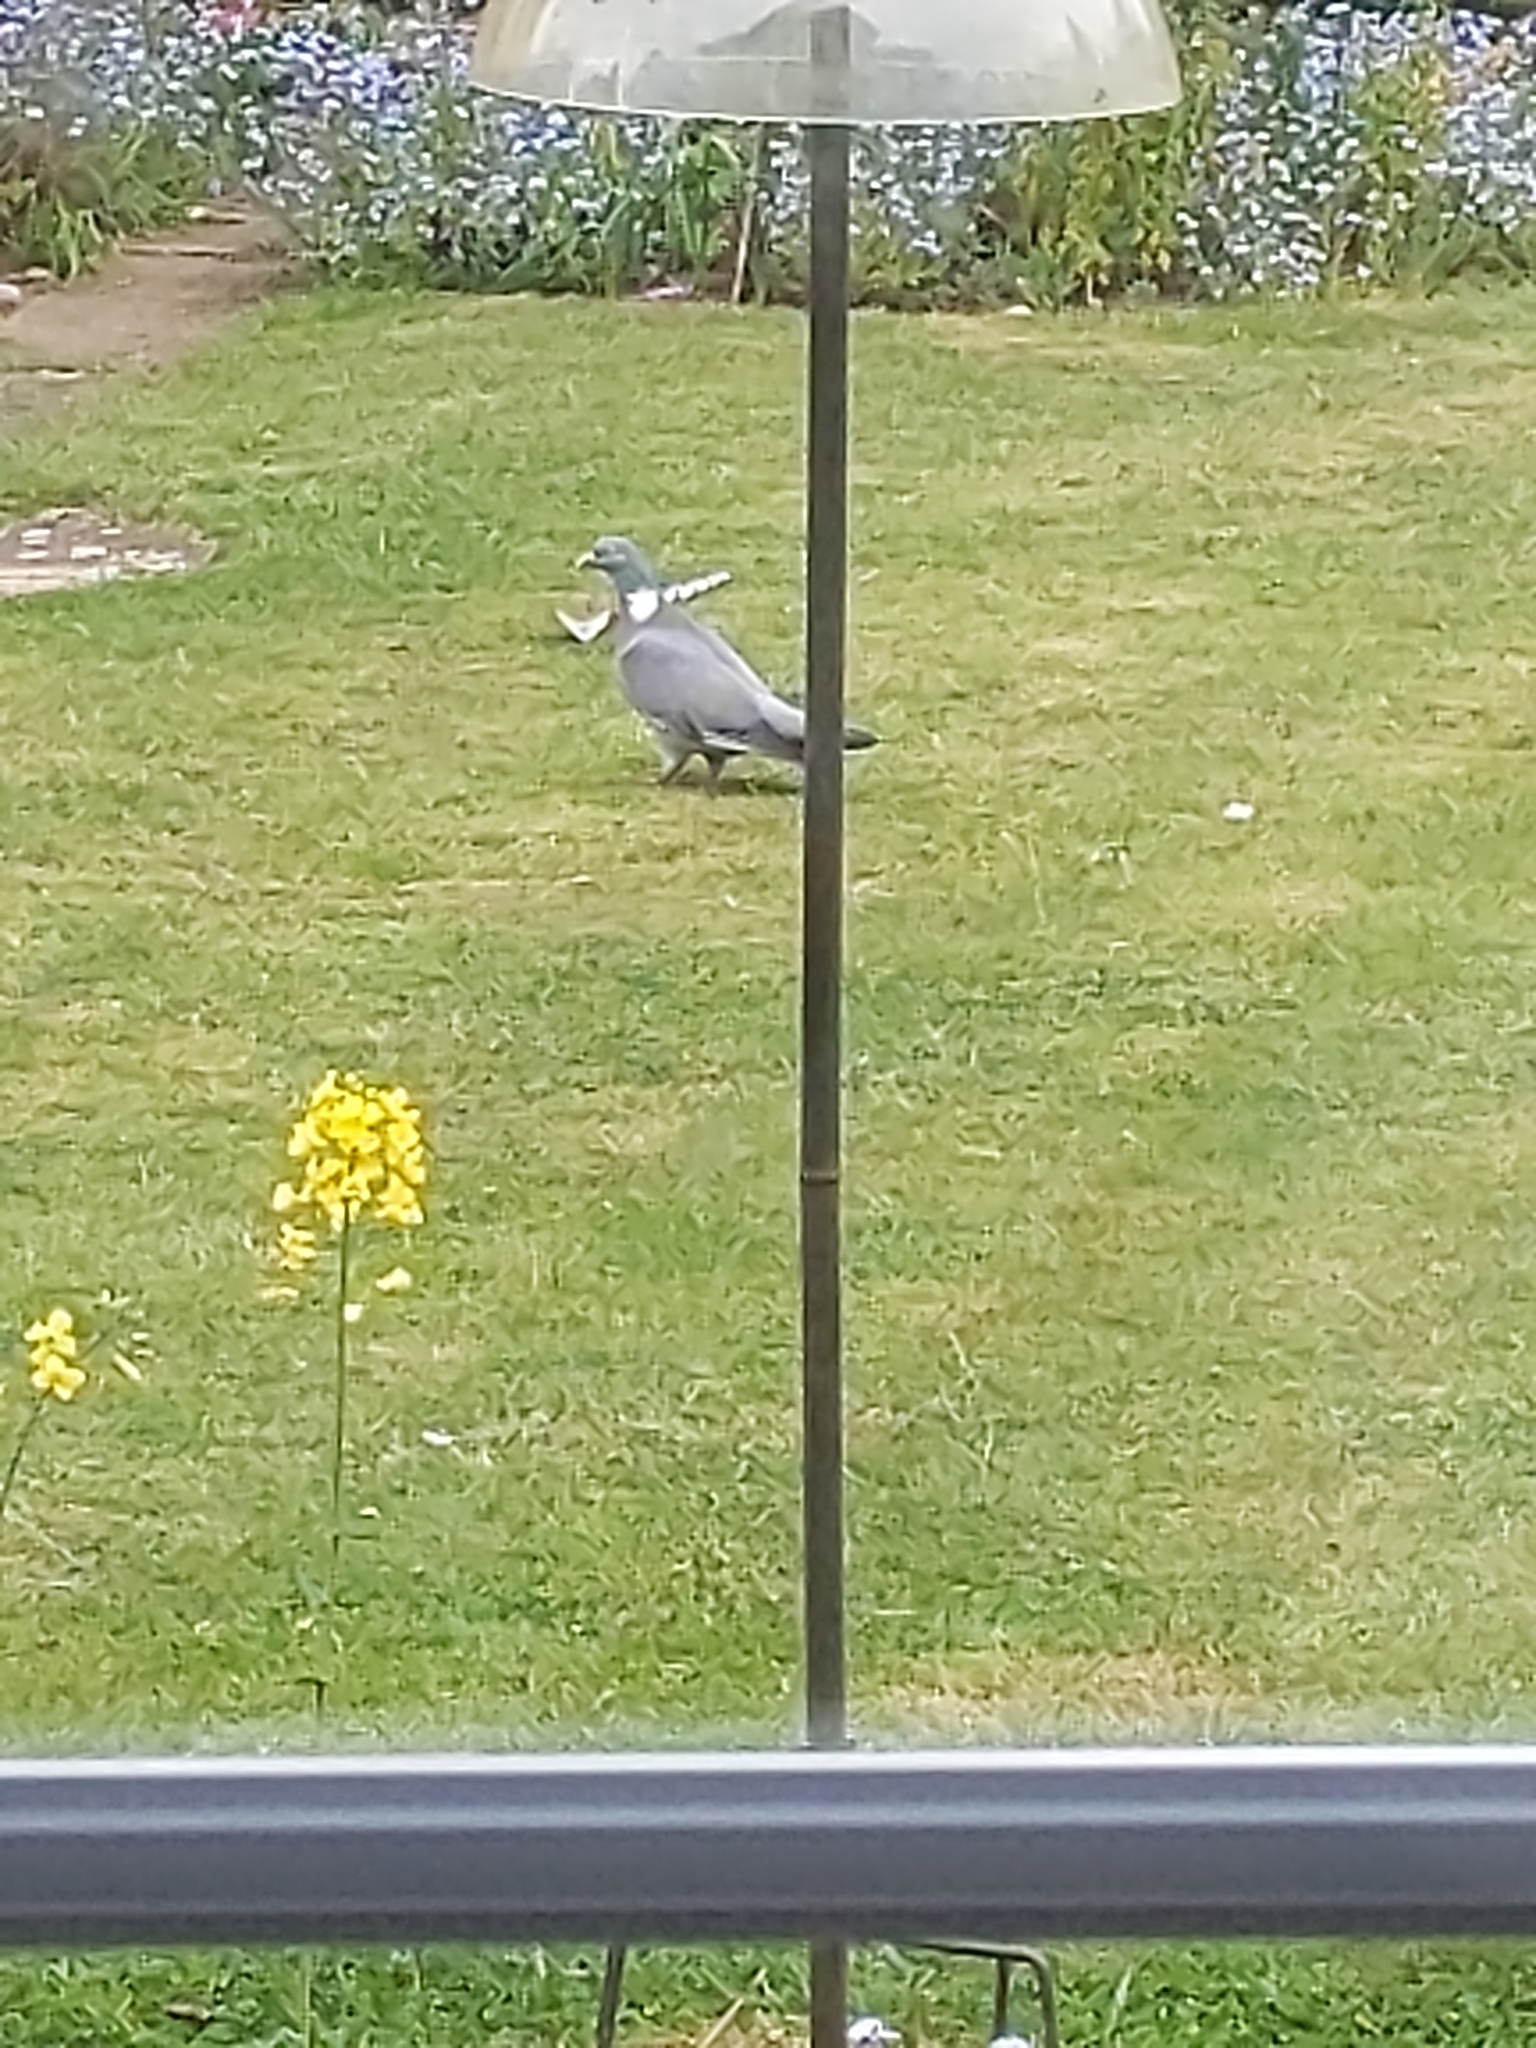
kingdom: Animalia
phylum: Chordata
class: Aves
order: Columbiformes
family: Columbidae
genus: Columba
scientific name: Columba palumbus
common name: Common wood pigeon
